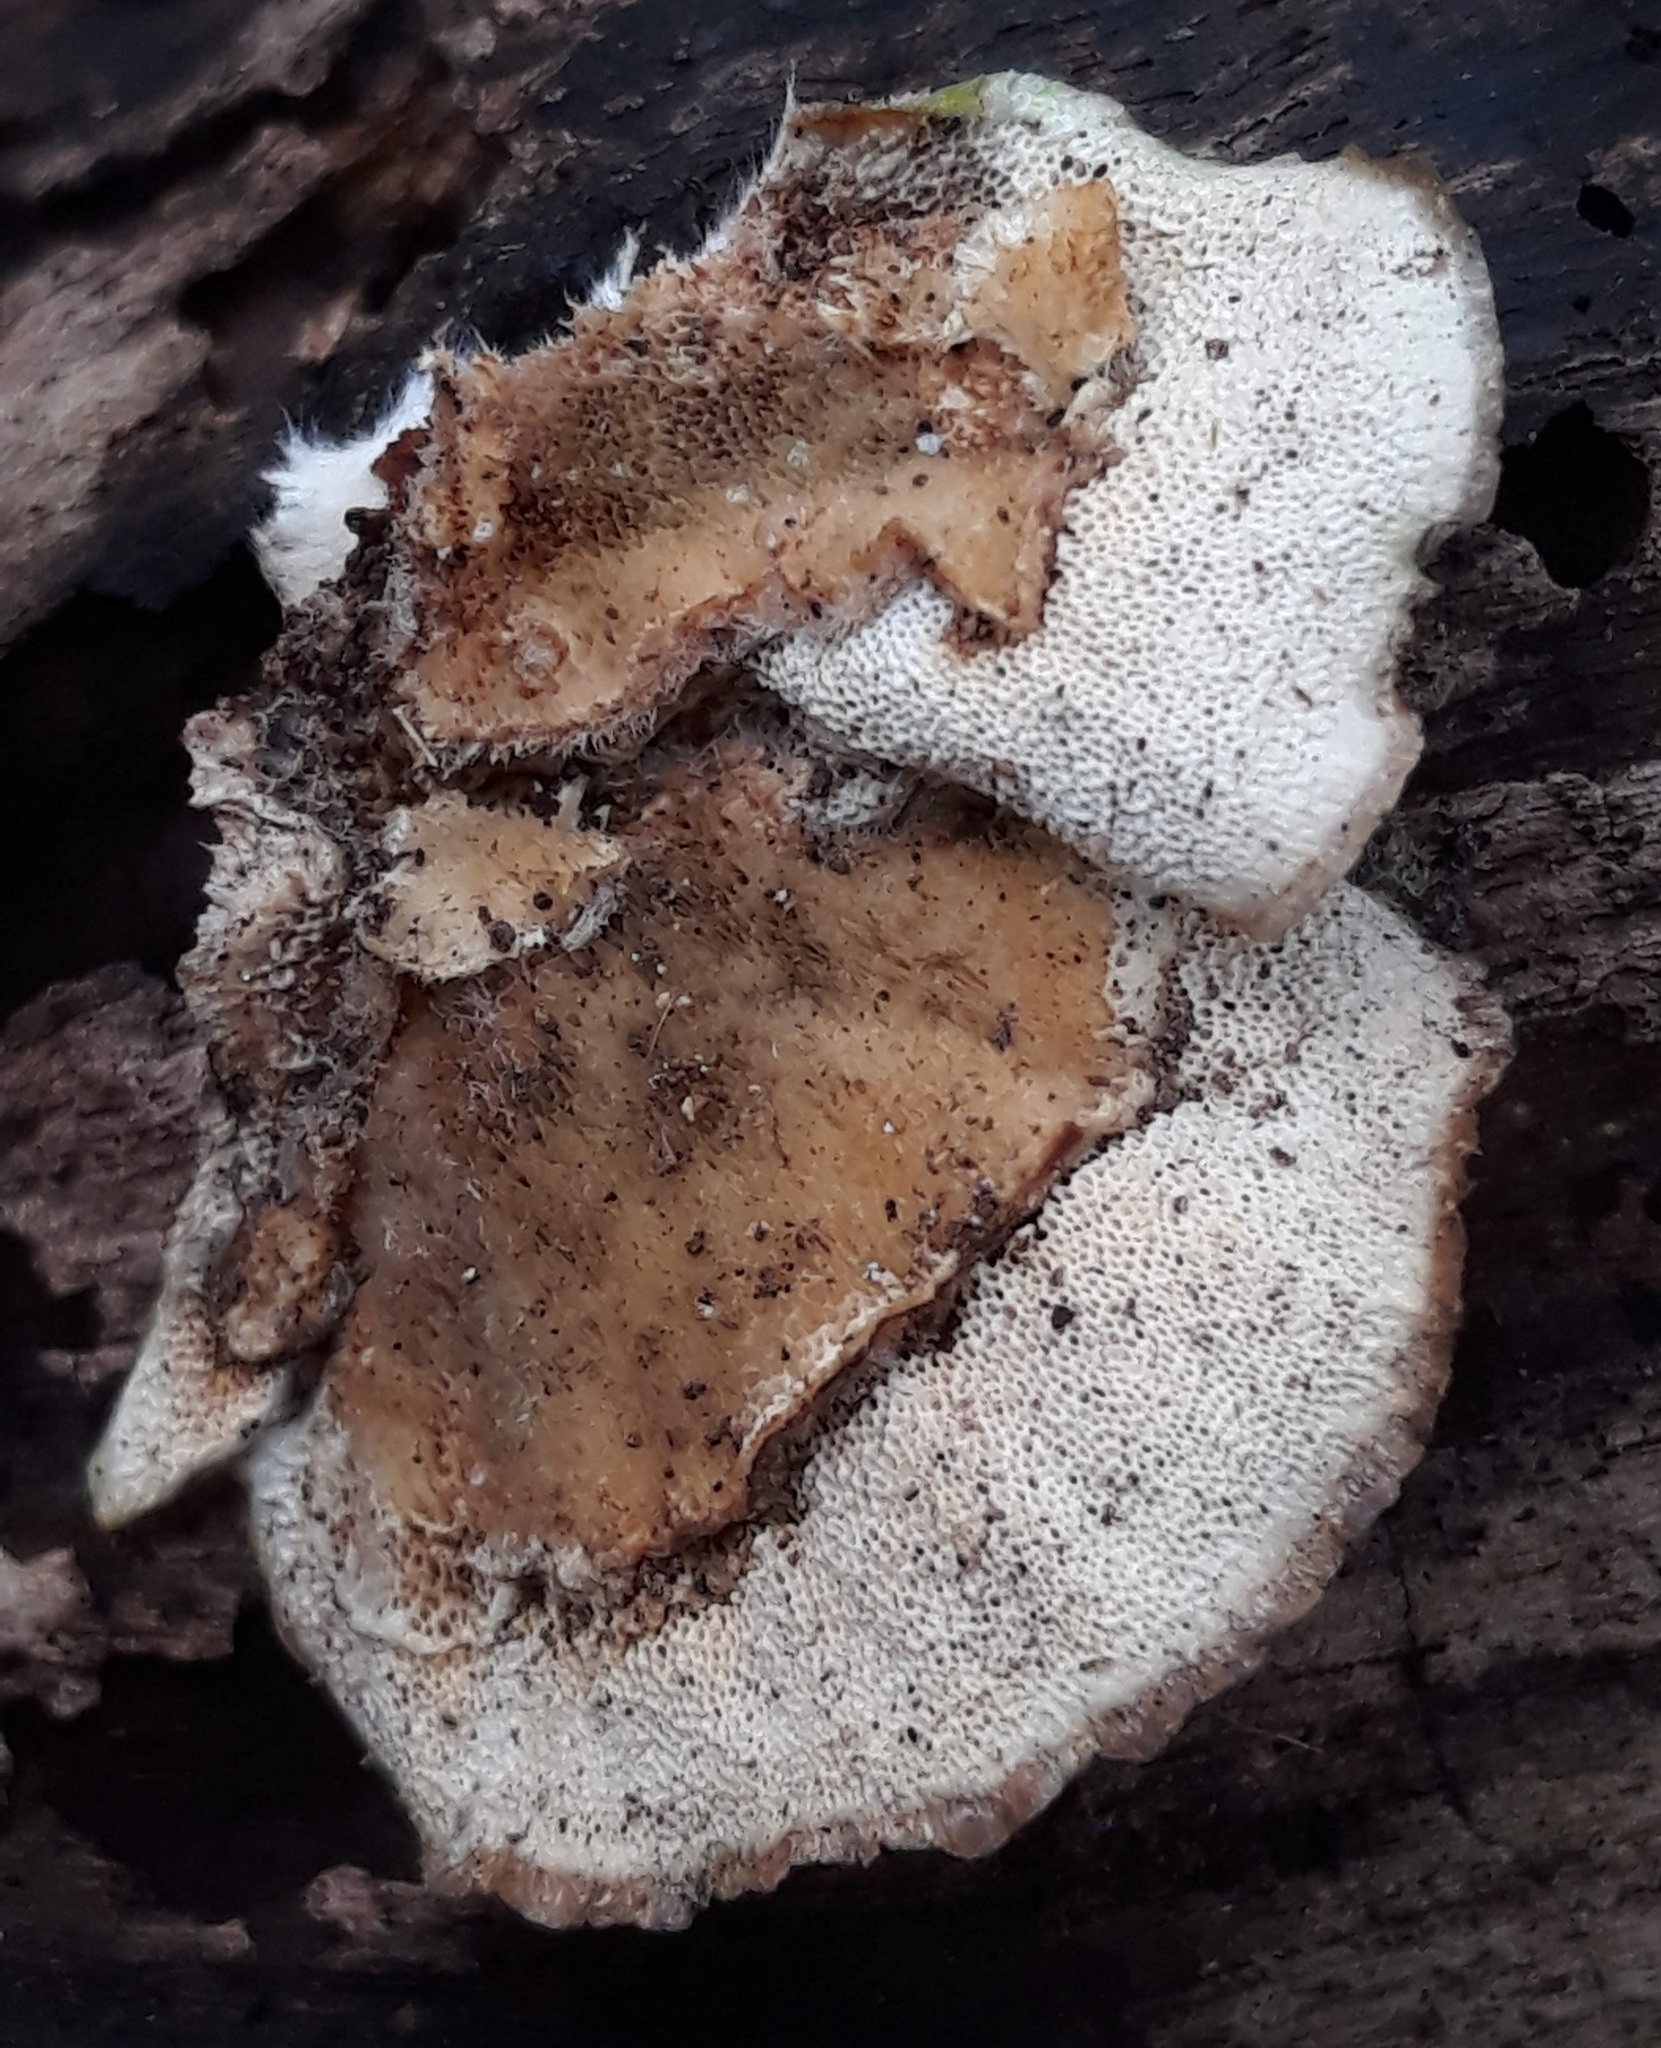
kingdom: Fungi
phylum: Basidiomycota
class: Agaricomycetes
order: Polyporales
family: Polyporaceae
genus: Trametes
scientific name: Trametes versicolor
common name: Turkeytail
